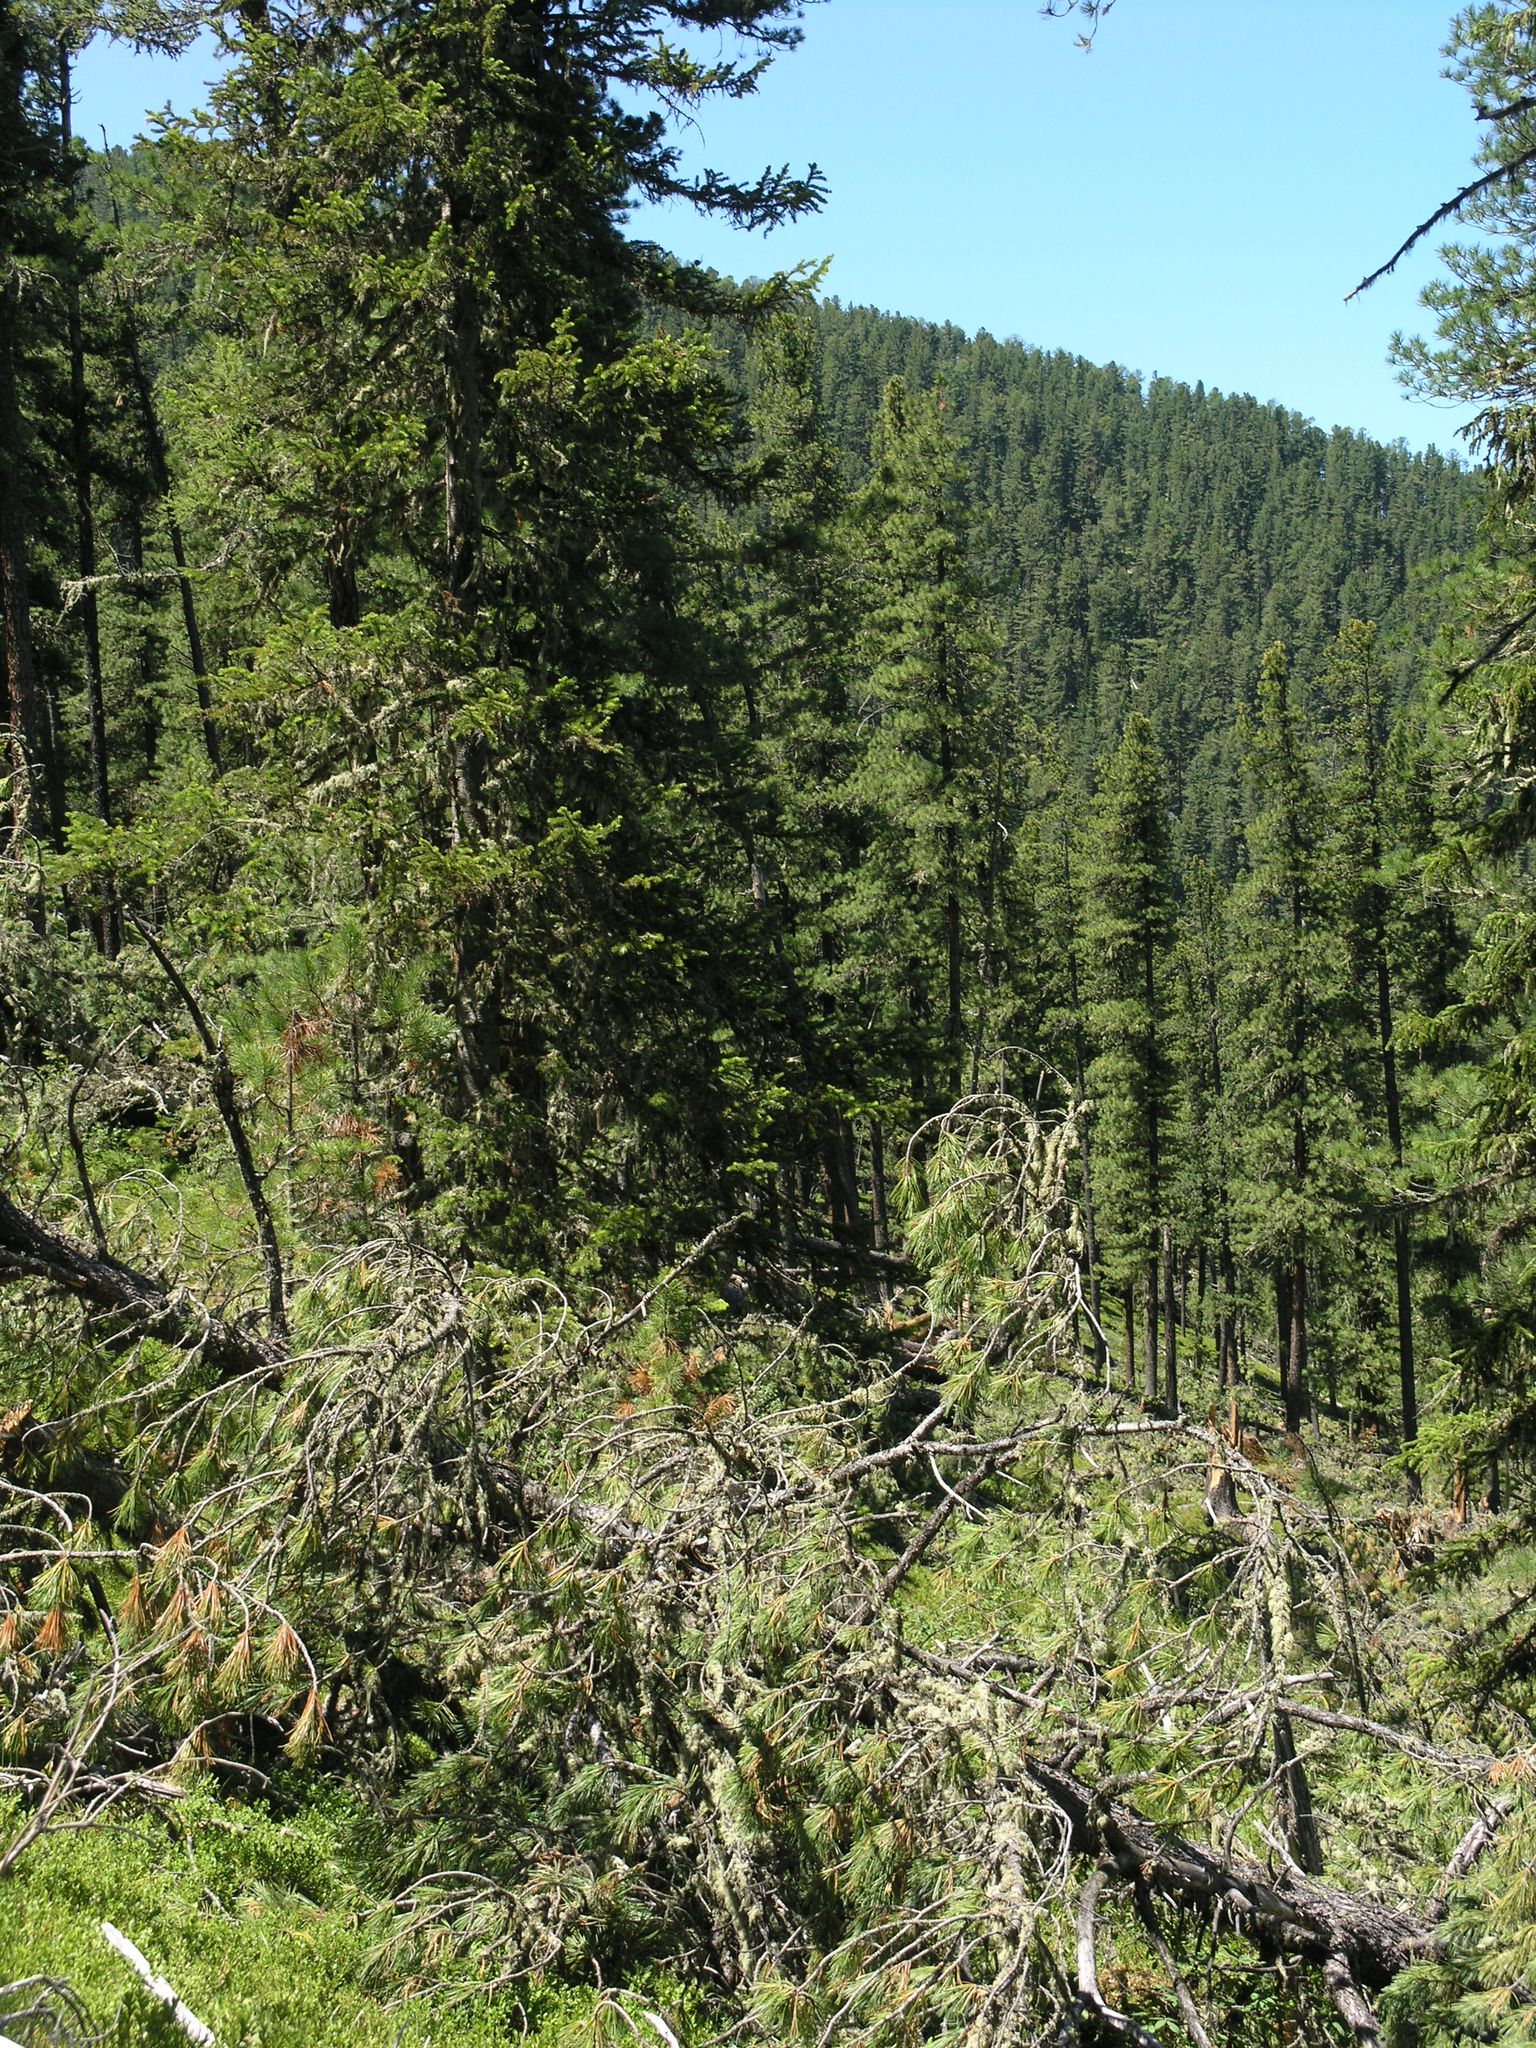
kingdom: Plantae
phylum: Tracheophyta
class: Pinopsida
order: Pinales
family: Pinaceae
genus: Pinus
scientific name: Pinus sibirica
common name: Siberian pine
